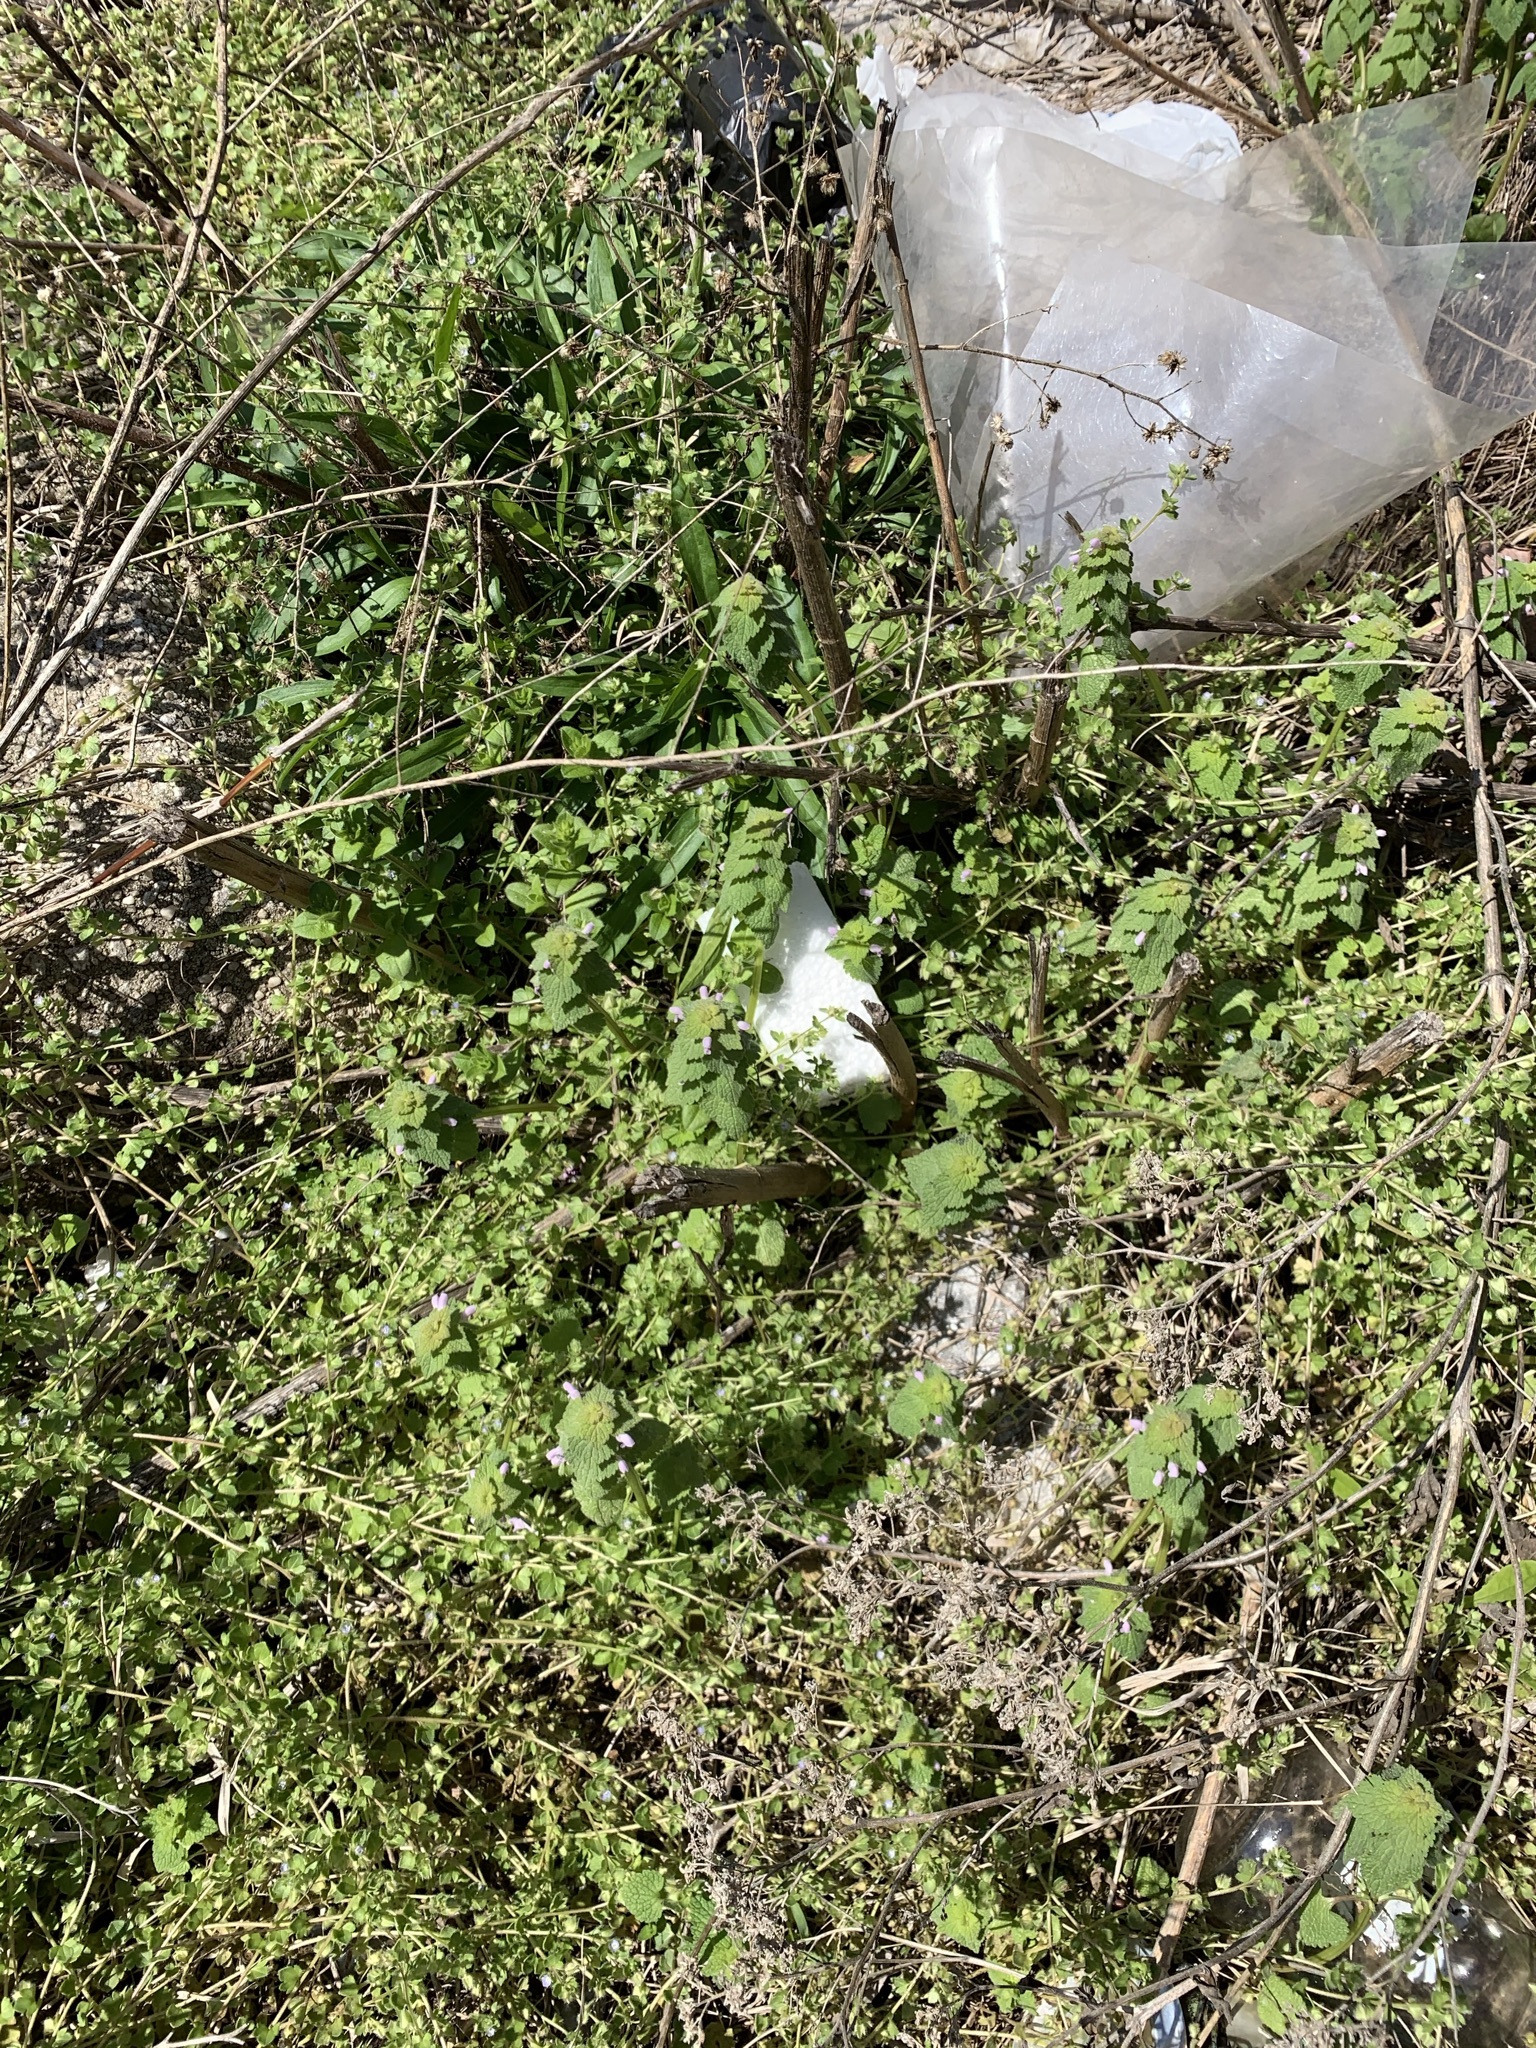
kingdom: Plantae
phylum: Tracheophyta
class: Magnoliopsida
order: Lamiales
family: Lamiaceae
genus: Lamium
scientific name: Lamium purpureum
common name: Red dead-nettle
